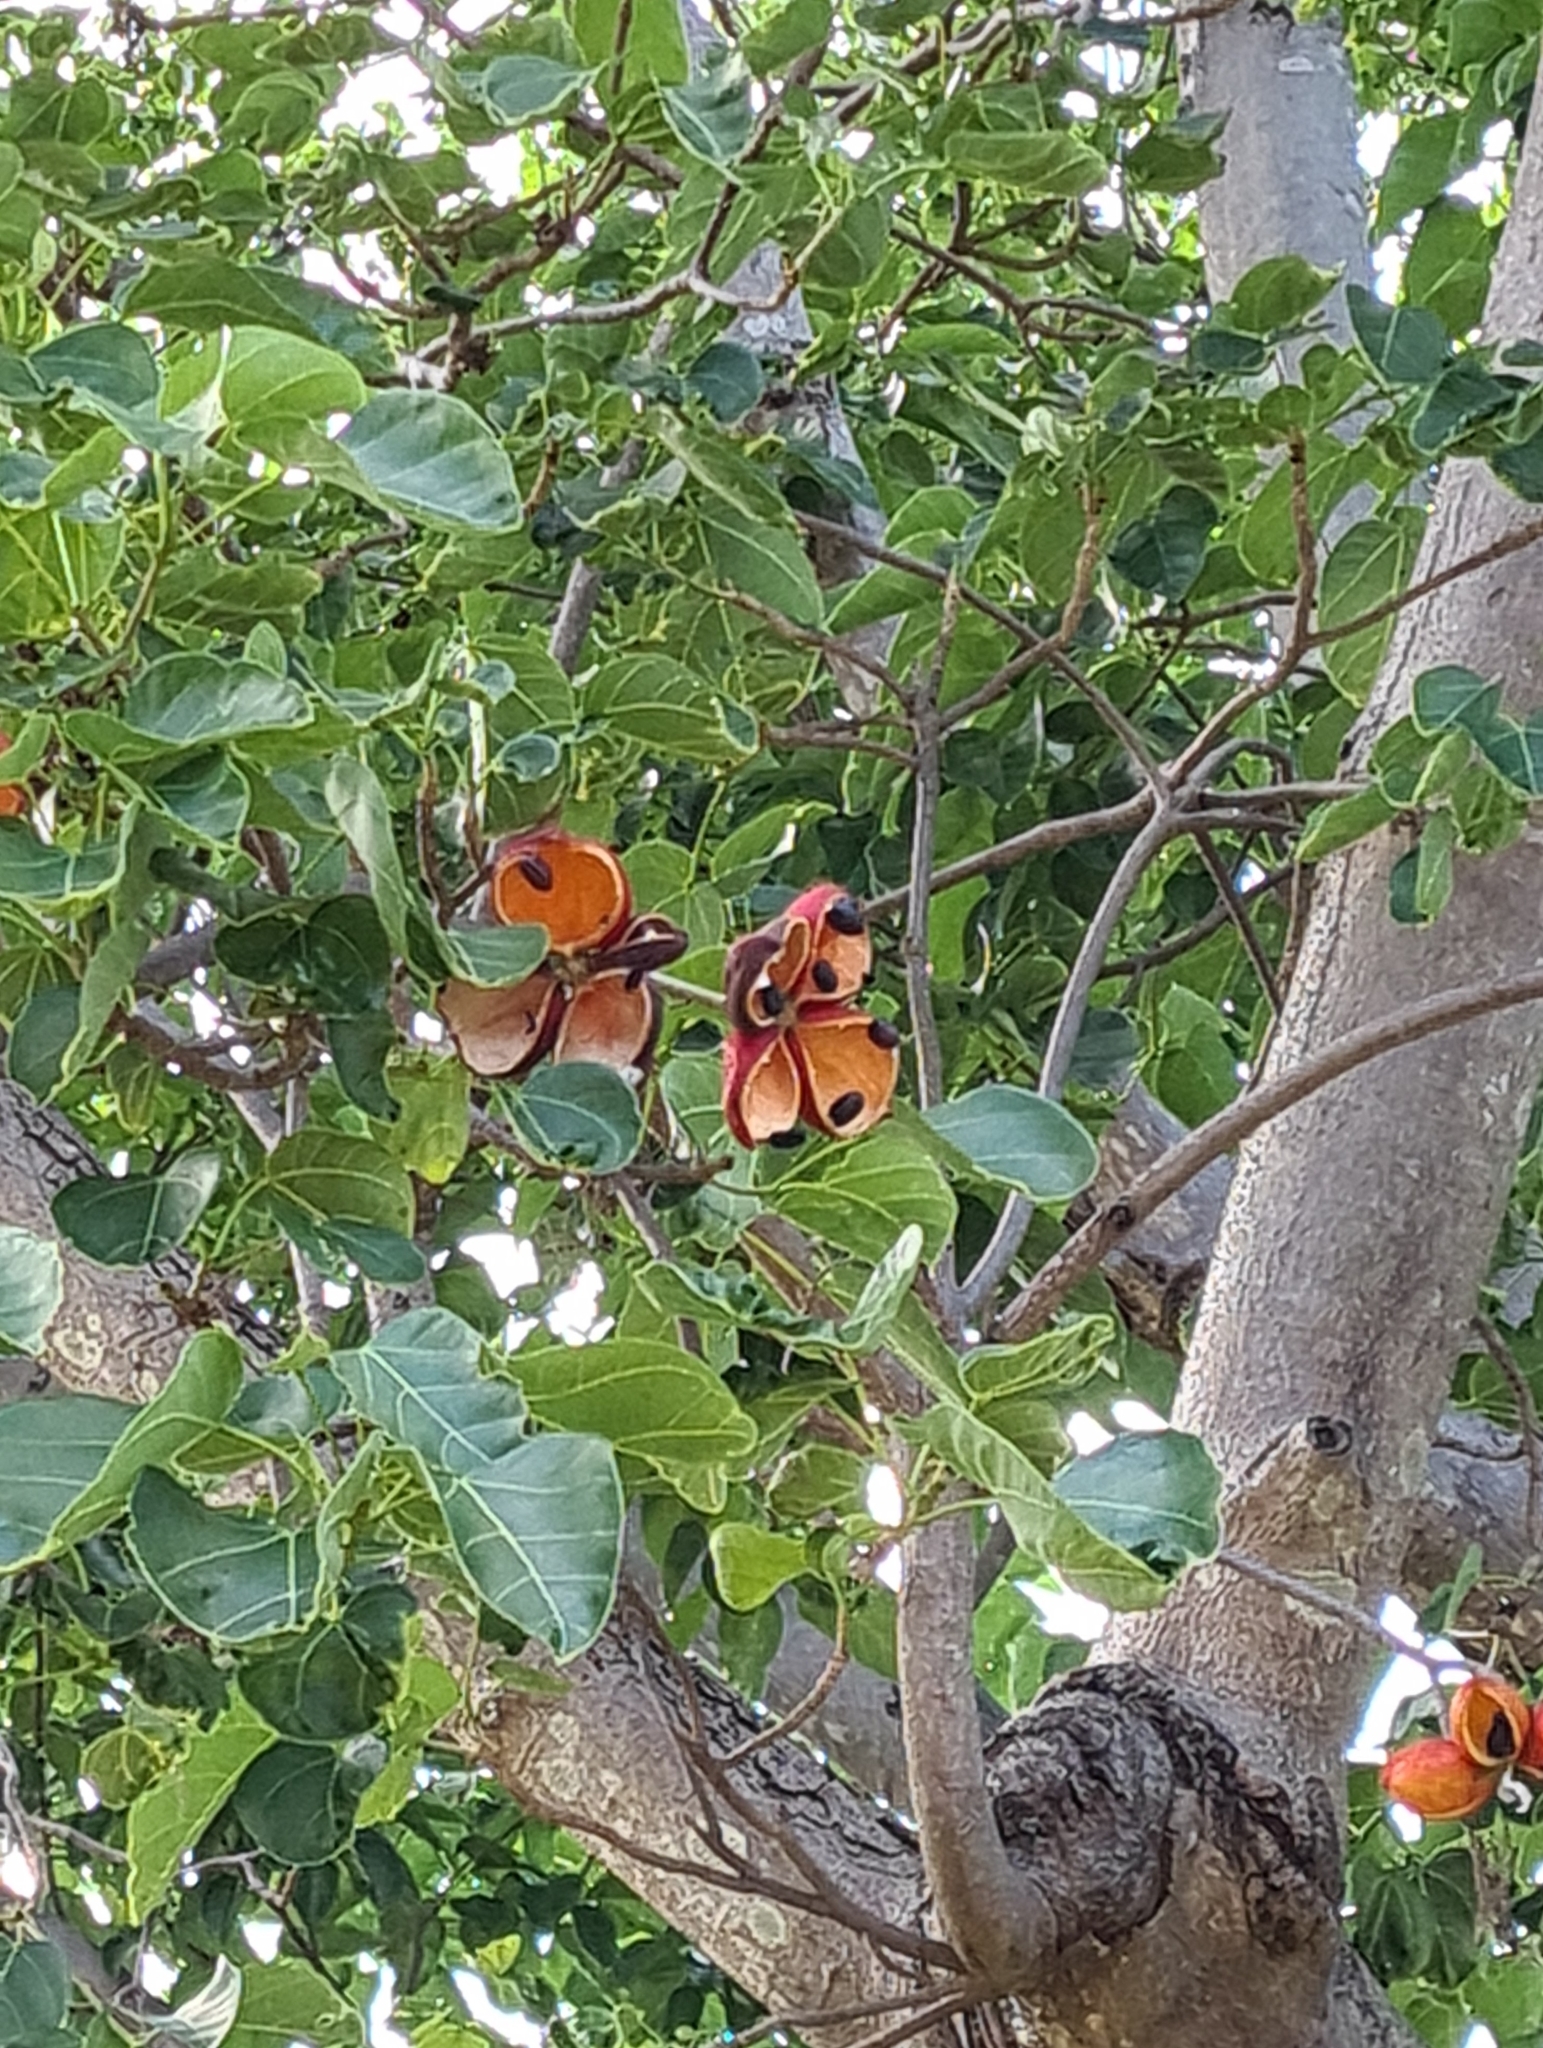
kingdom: Plantae
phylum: Tracheophyta
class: Magnoliopsida
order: Malvales
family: Malvaceae
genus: Sterculia
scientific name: Sterculia quadrifida
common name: Orange-fruit kurrajong
